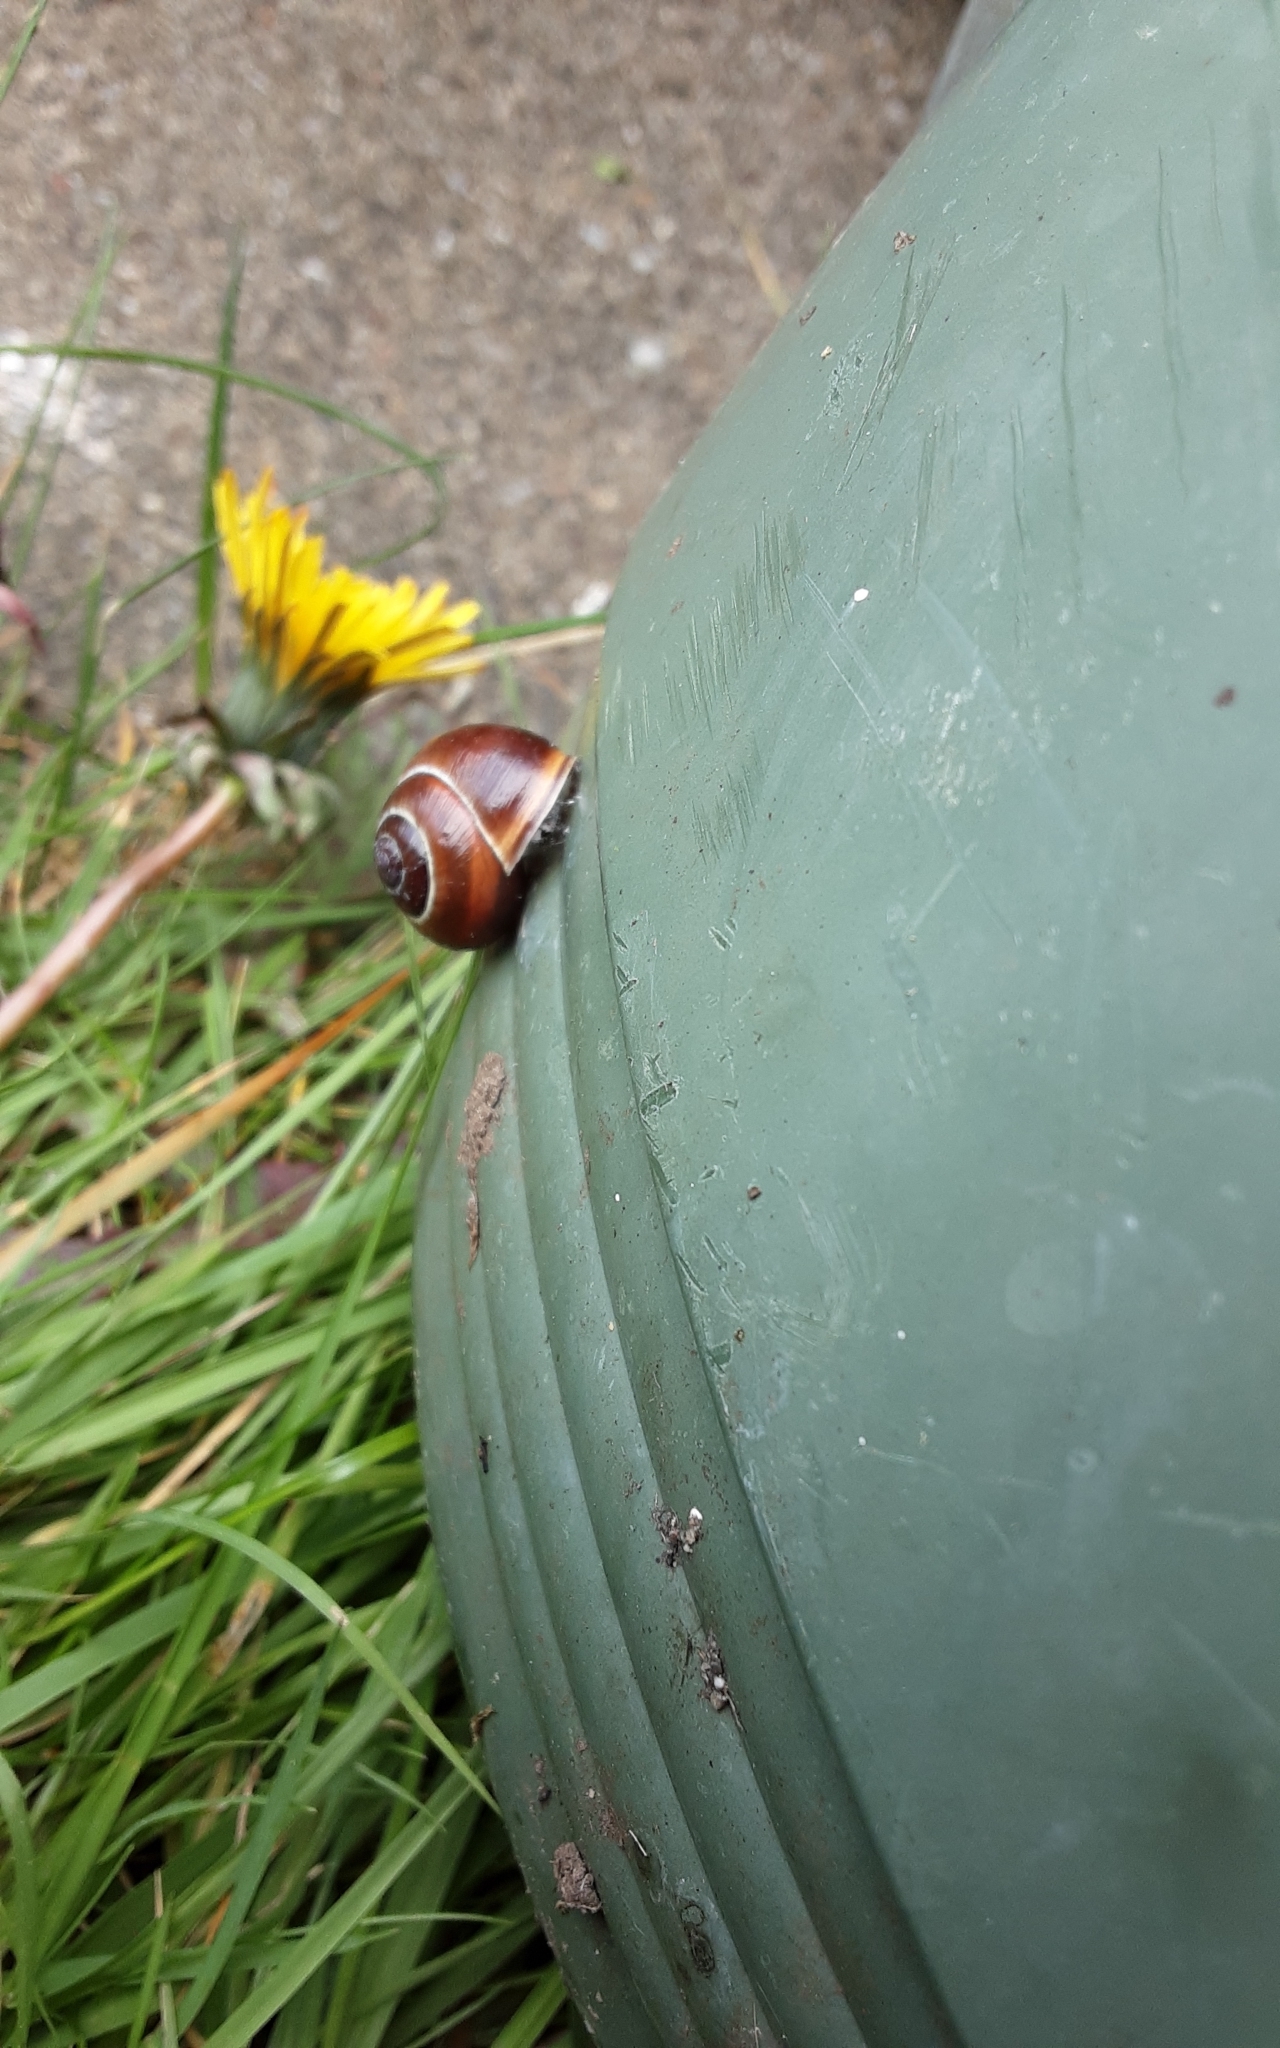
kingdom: Animalia
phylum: Mollusca
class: Gastropoda
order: Stylommatophora
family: Helicidae
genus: Cepaea
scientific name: Cepaea nemoralis
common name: Grovesnail
